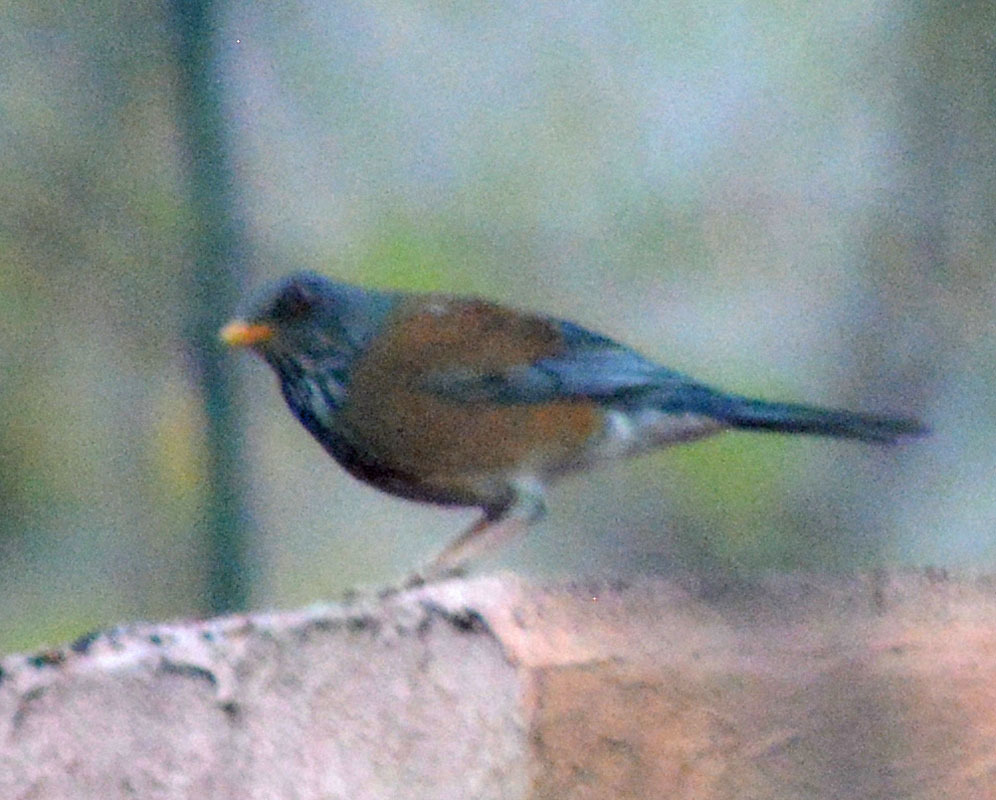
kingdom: Animalia
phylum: Chordata
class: Aves
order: Passeriformes
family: Turdidae
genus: Turdus
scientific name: Turdus rufopalliatus
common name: Rufous-backed robin
